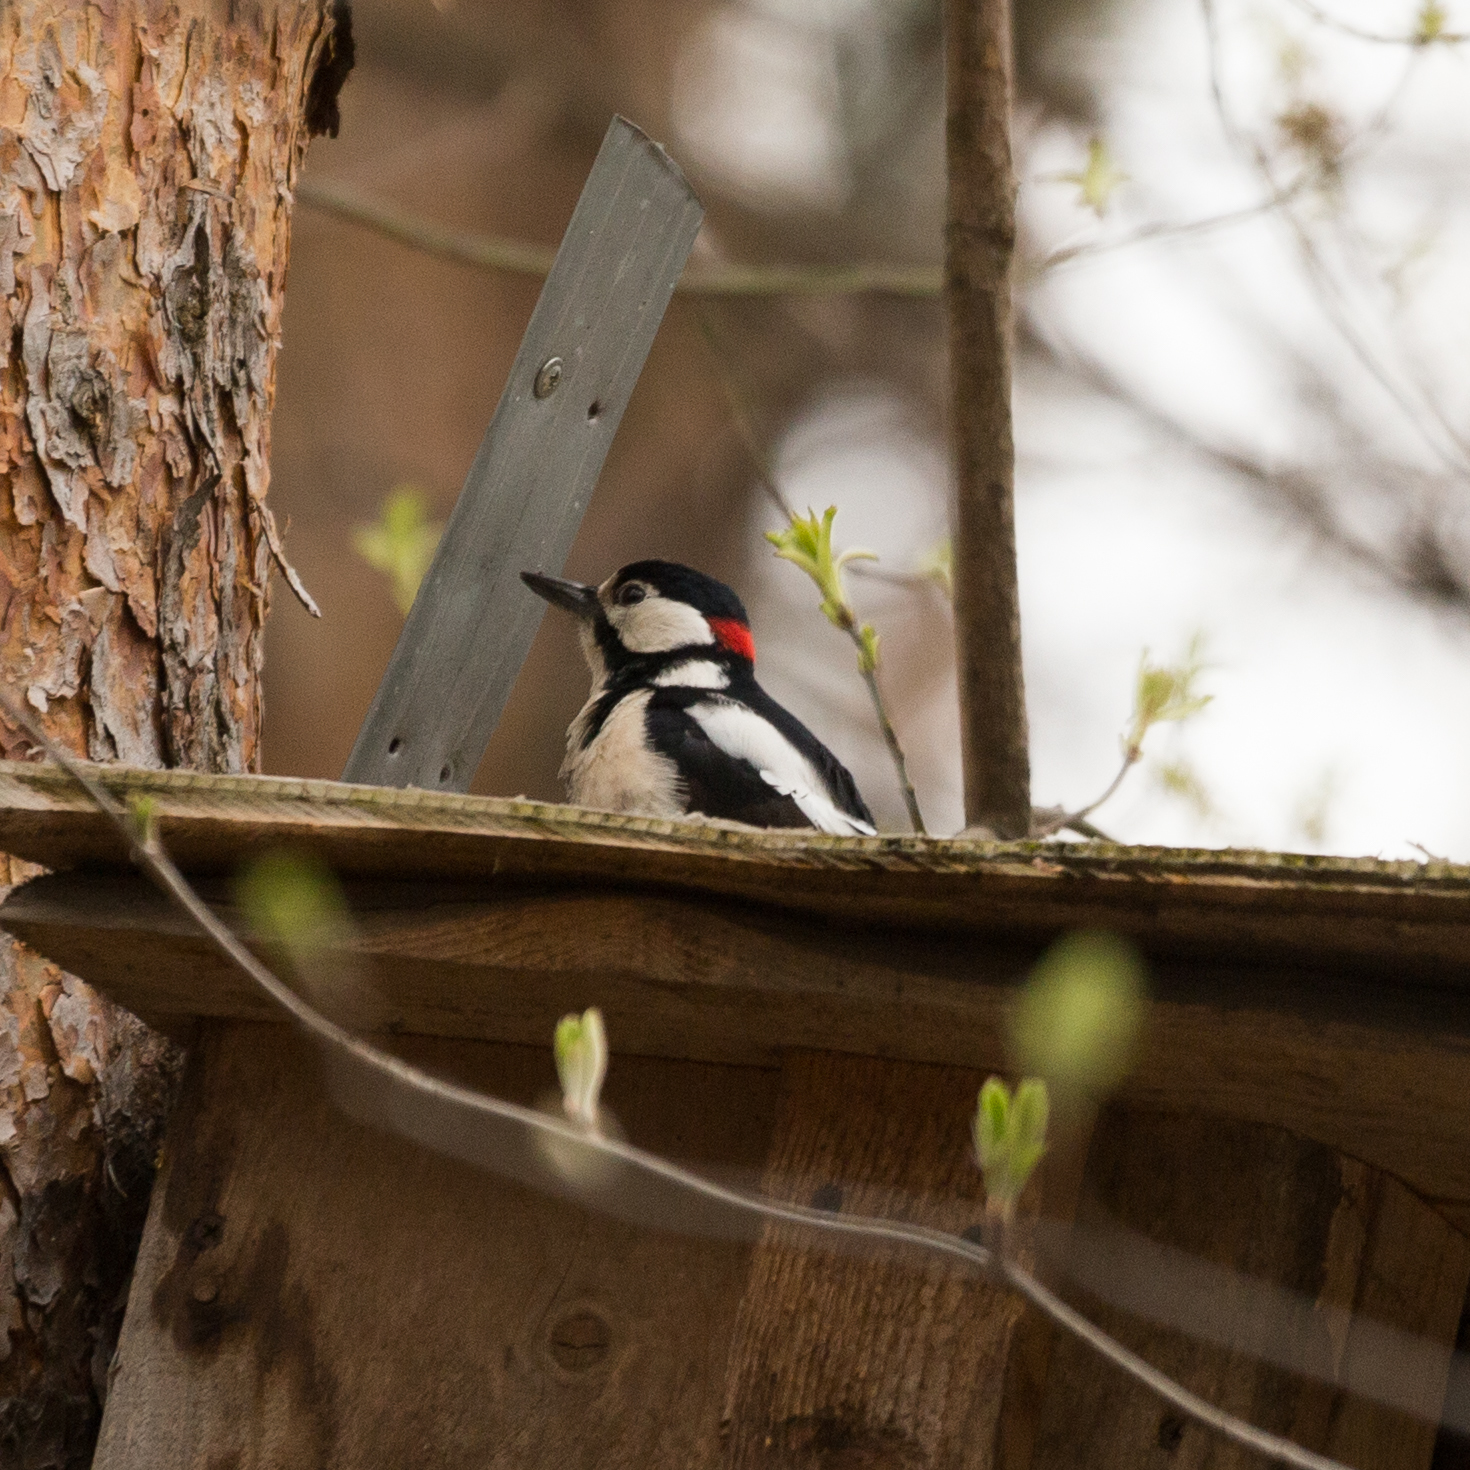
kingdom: Animalia
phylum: Chordata
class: Aves
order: Piciformes
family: Picidae
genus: Dendrocopos
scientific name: Dendrocopos major
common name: Great spotted woodpecker
